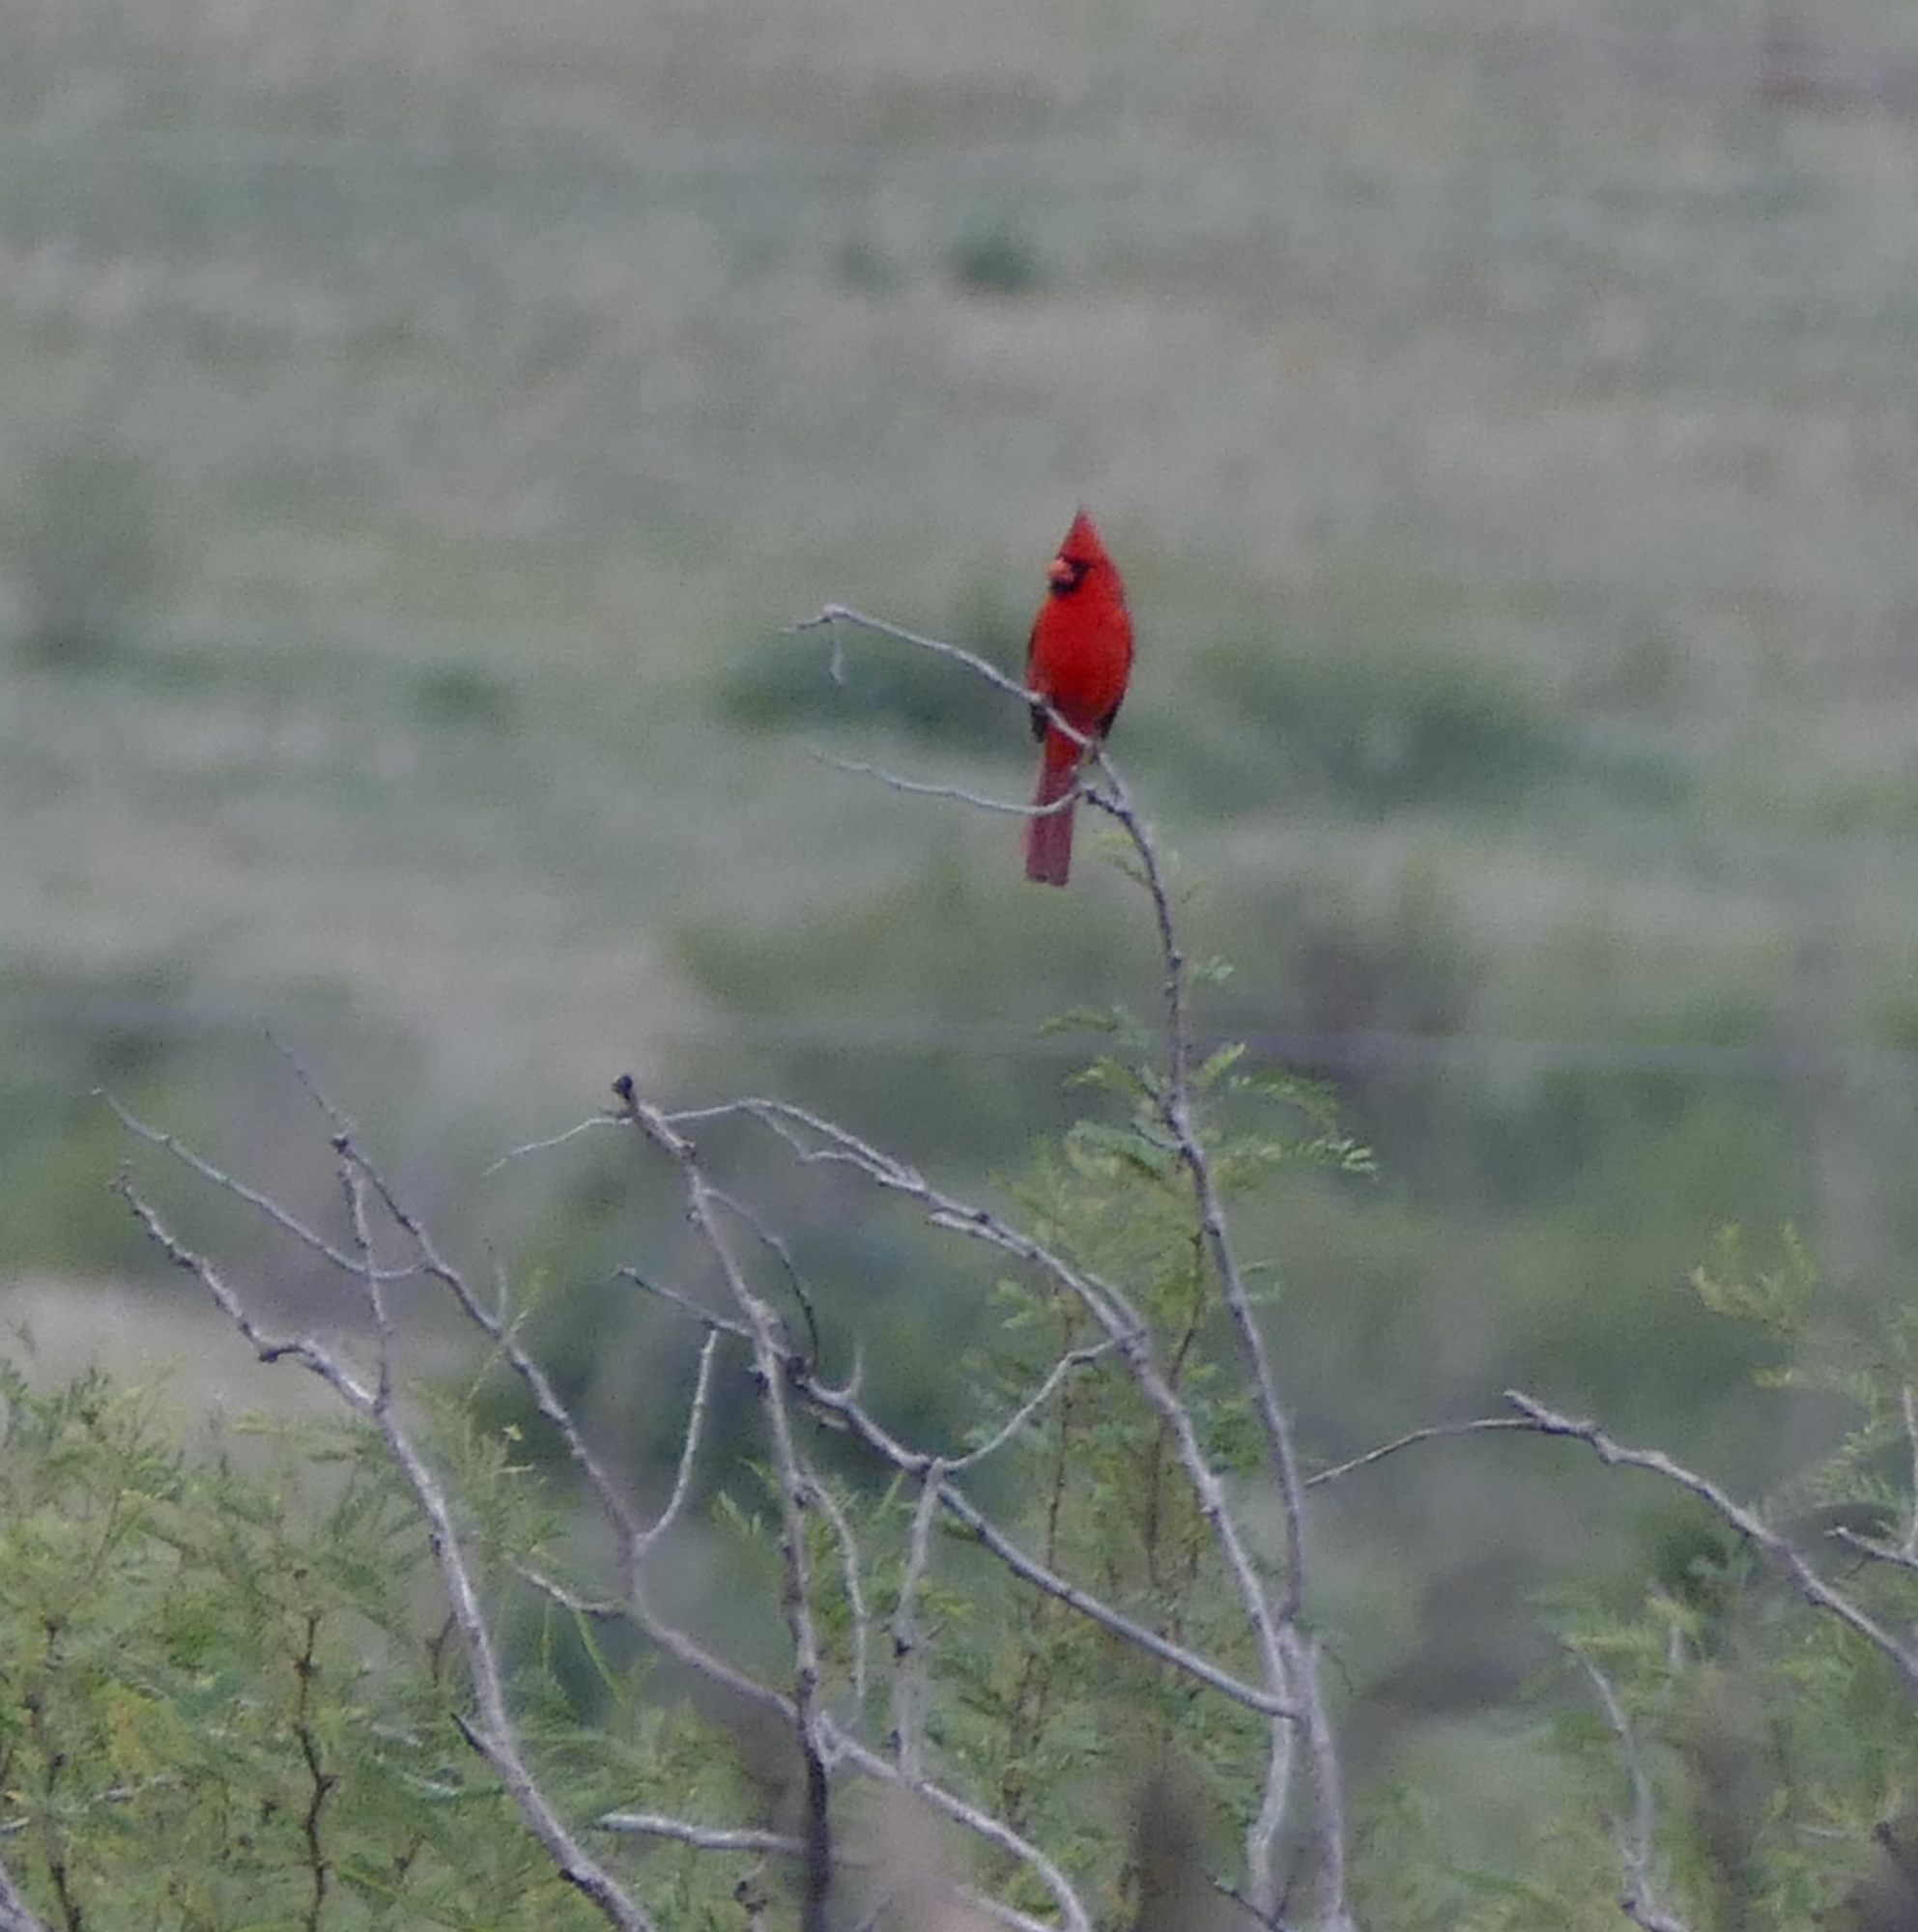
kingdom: Animalia
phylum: Chordata
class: Aves
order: Passeriformes
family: Cardinalidae
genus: Cardinalis
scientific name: Cardinalis cardinalis
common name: Northern cardinal
